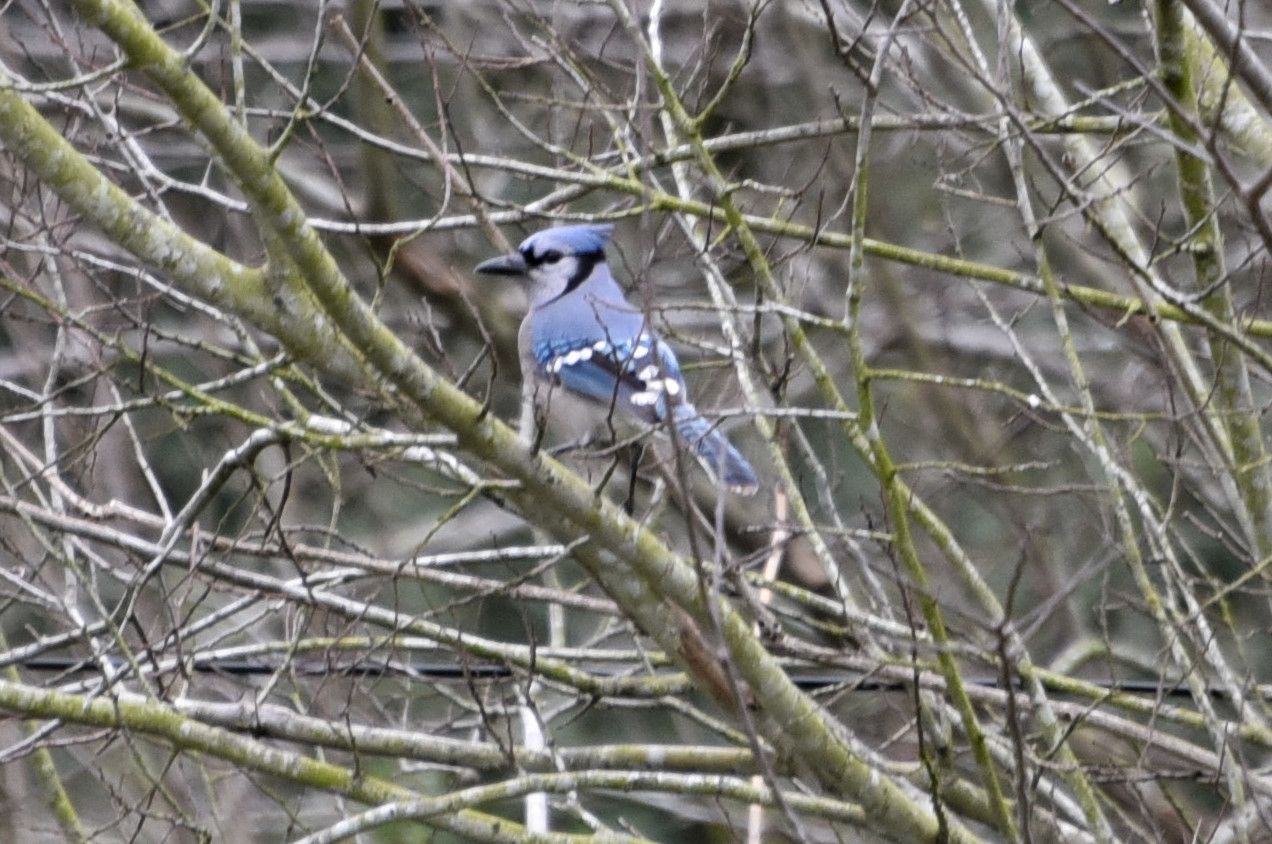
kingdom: Animalia
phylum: Chordata
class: Aves
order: Passeriformes
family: Corvidae
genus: Cyanocitta
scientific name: Cyanocitta cristata
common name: Blue jay
